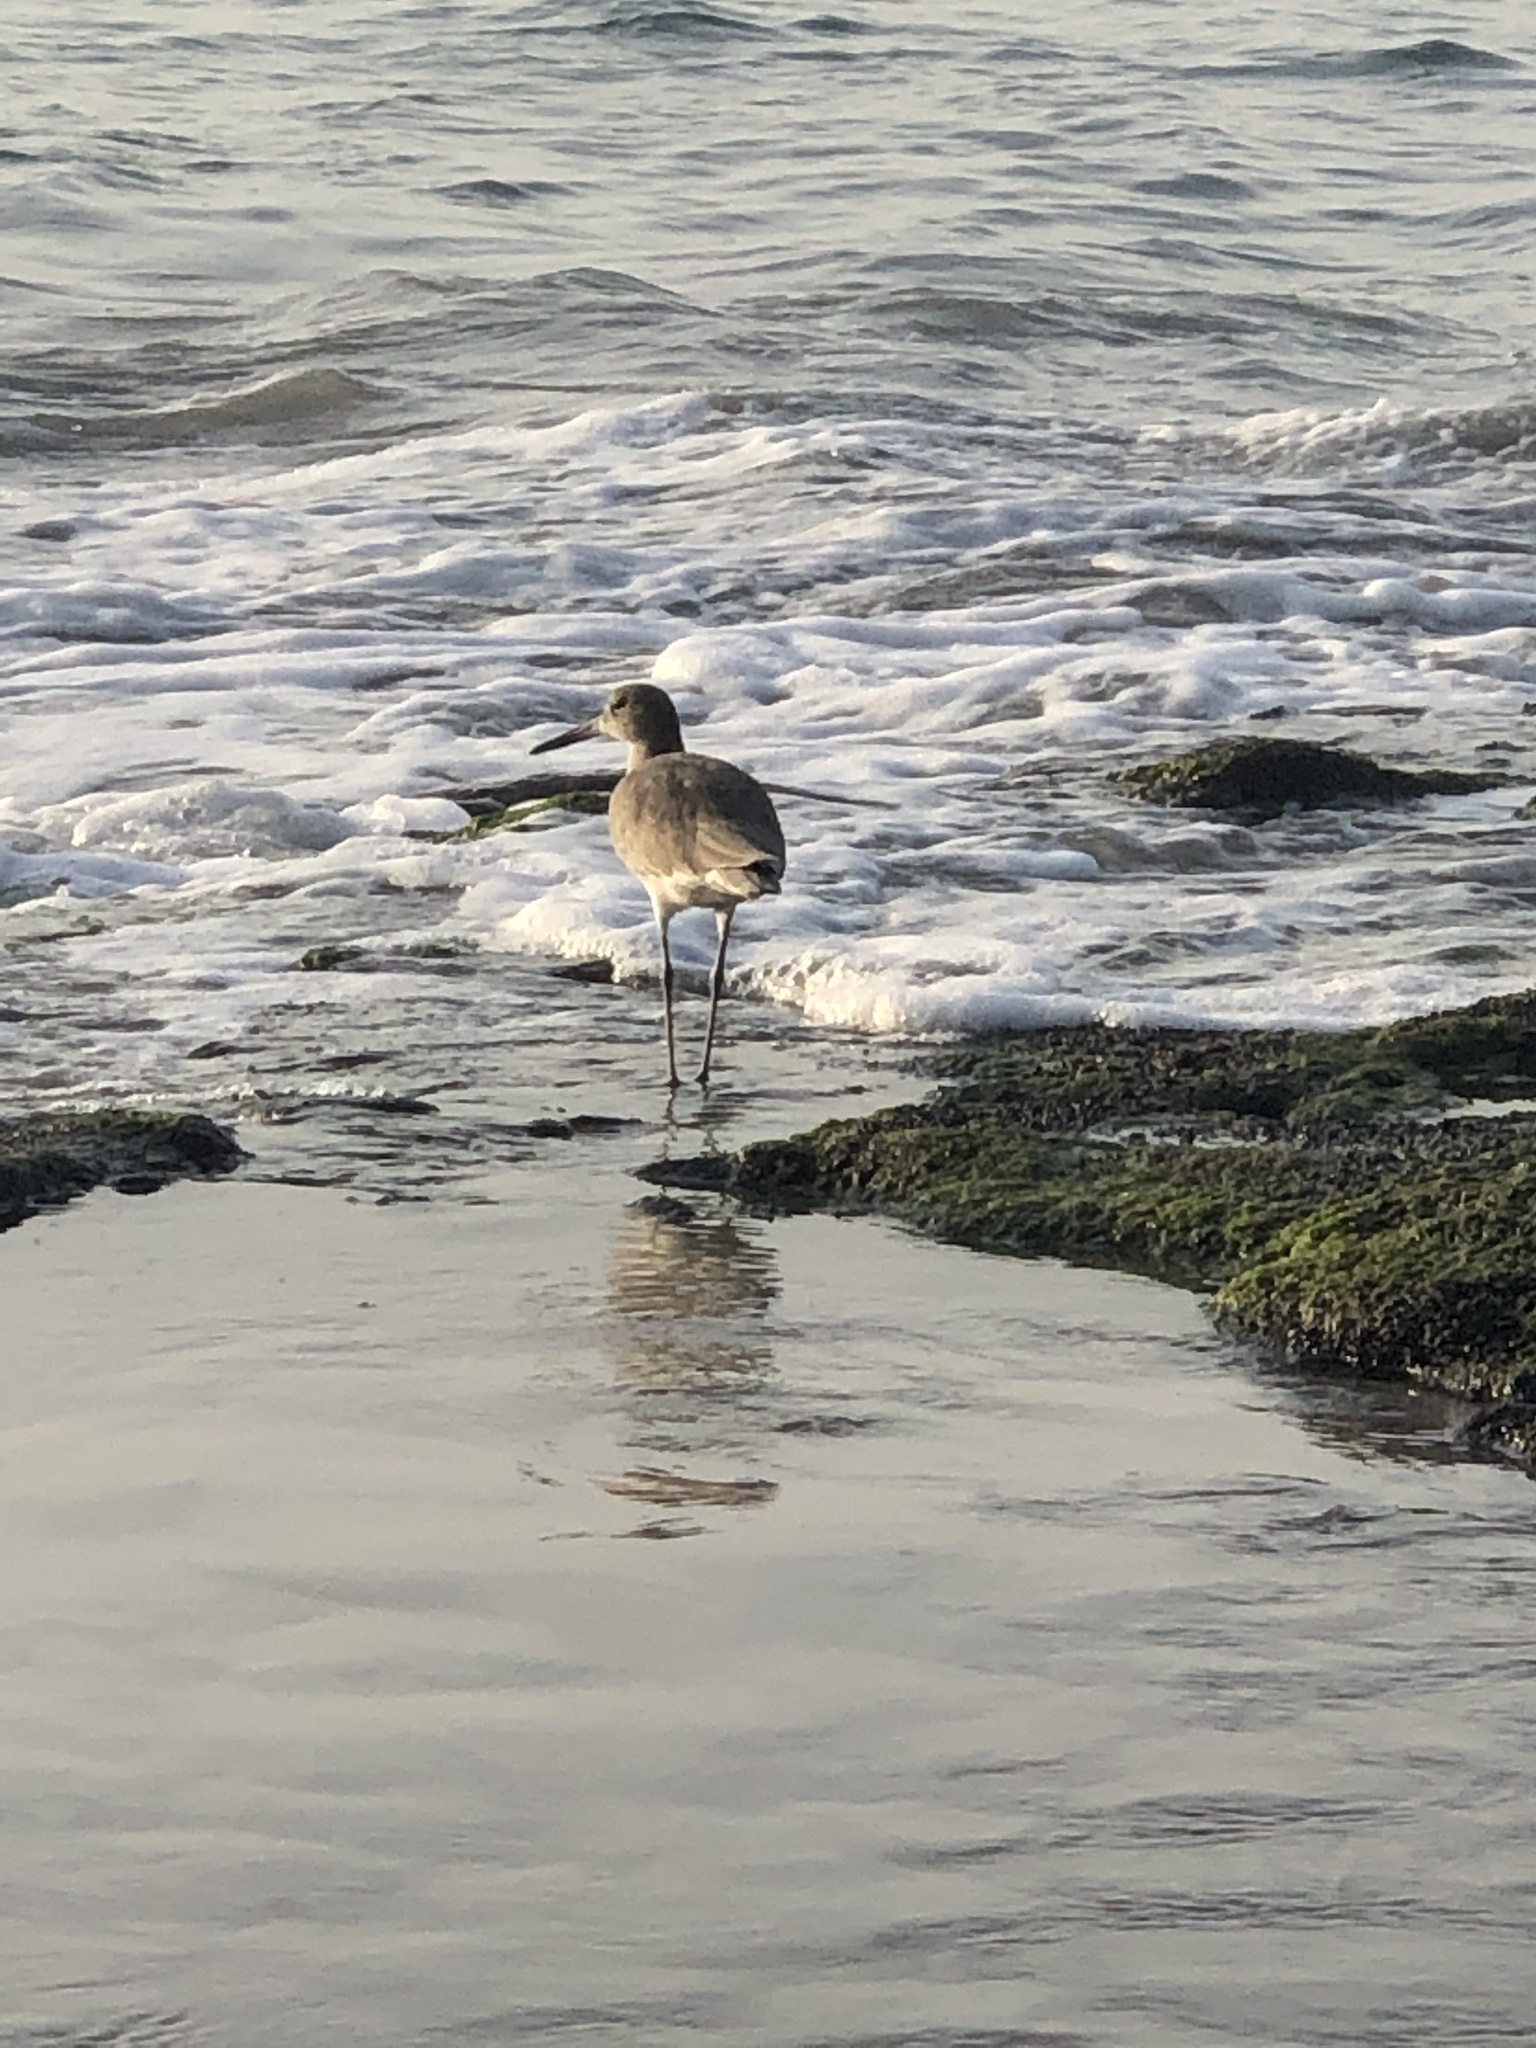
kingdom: Animalia
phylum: Chordata
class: Aves
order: Charadriiformes
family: Scolopacidae
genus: Tringa
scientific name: Tringa semipalmata
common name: Willet
